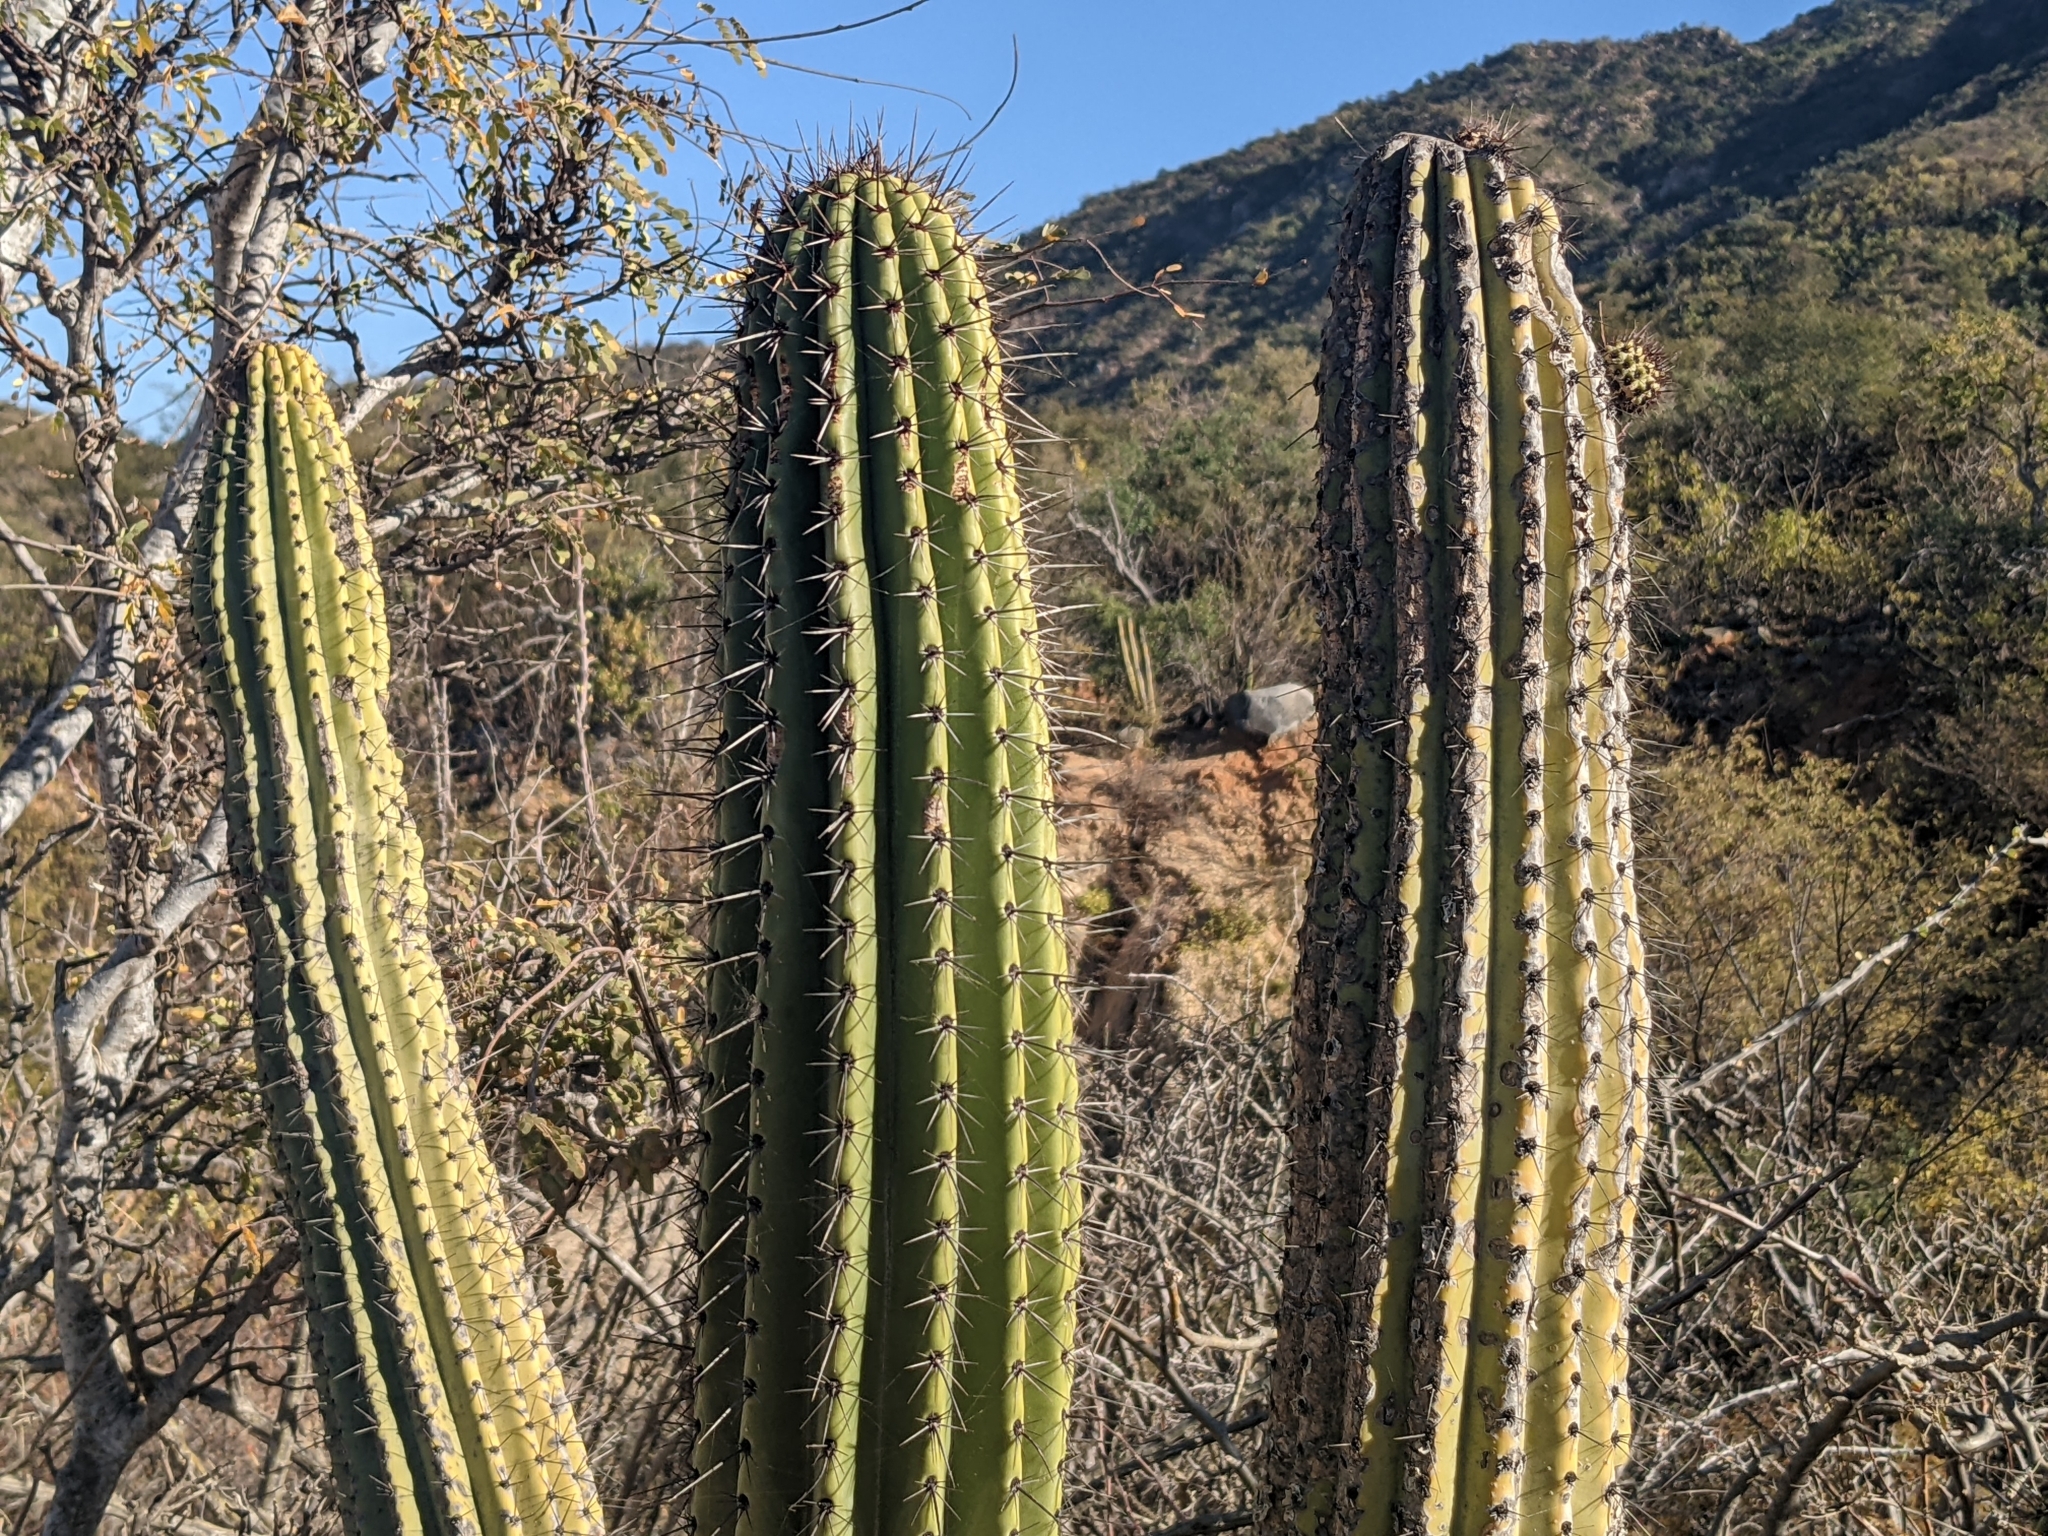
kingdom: Plantae
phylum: Tracheophyta
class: Magnoliopsida
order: Caryophyllales
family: Cactaceae
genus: Stenocereus
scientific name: Stenocereus thurberi
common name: Organ pipe cactus
